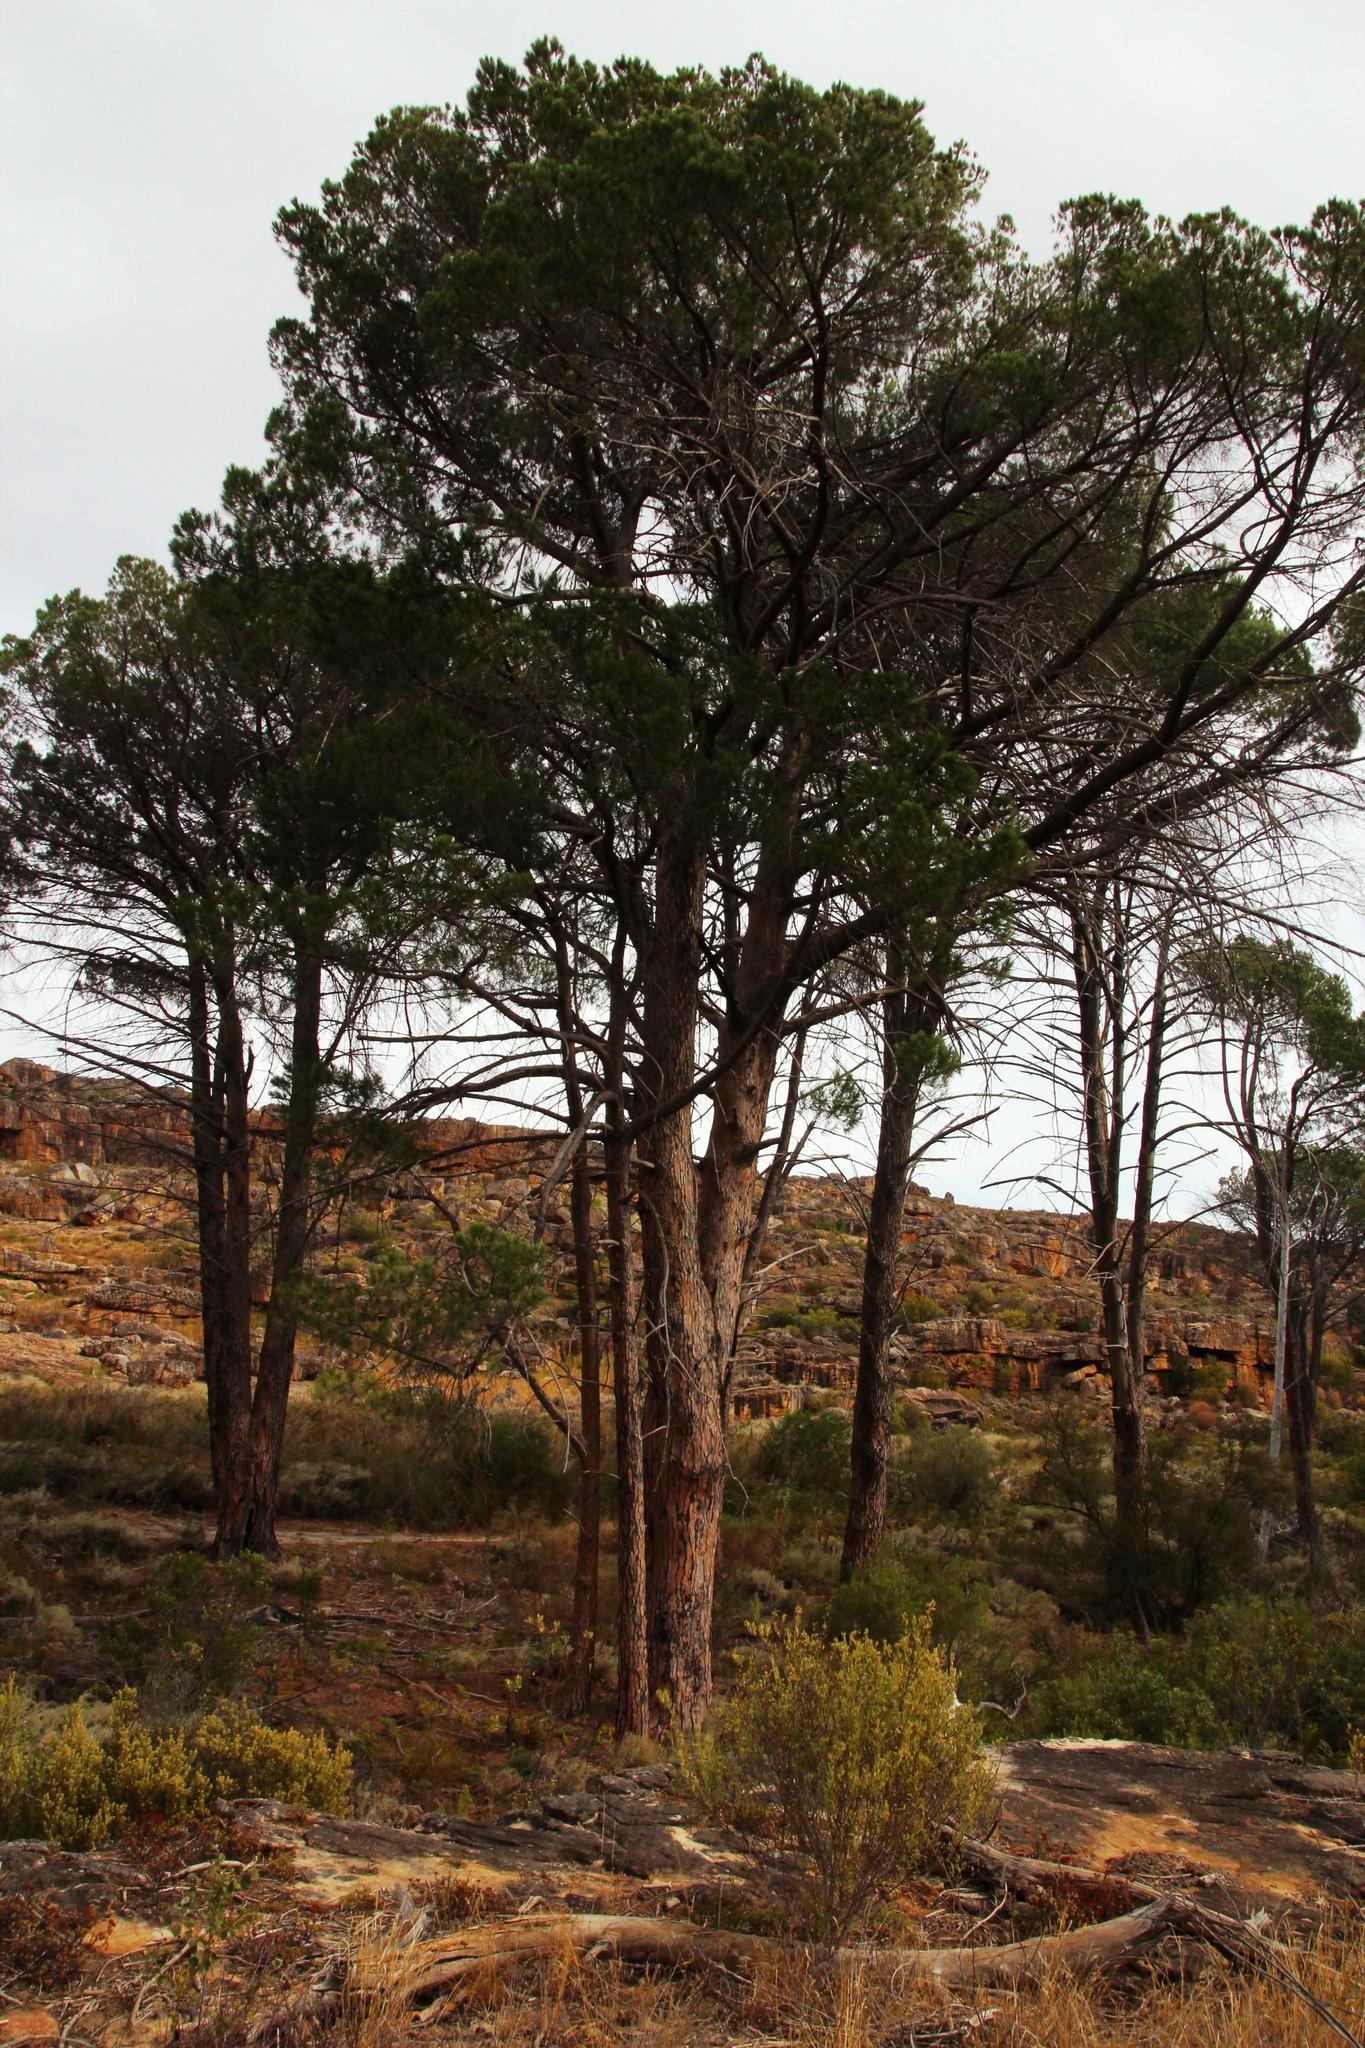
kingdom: Plantae
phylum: Tracheophyta
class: Pinopsida
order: Pinales
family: Pinaceae
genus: Pinus
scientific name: Pinus pinea
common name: Italian stone pine
